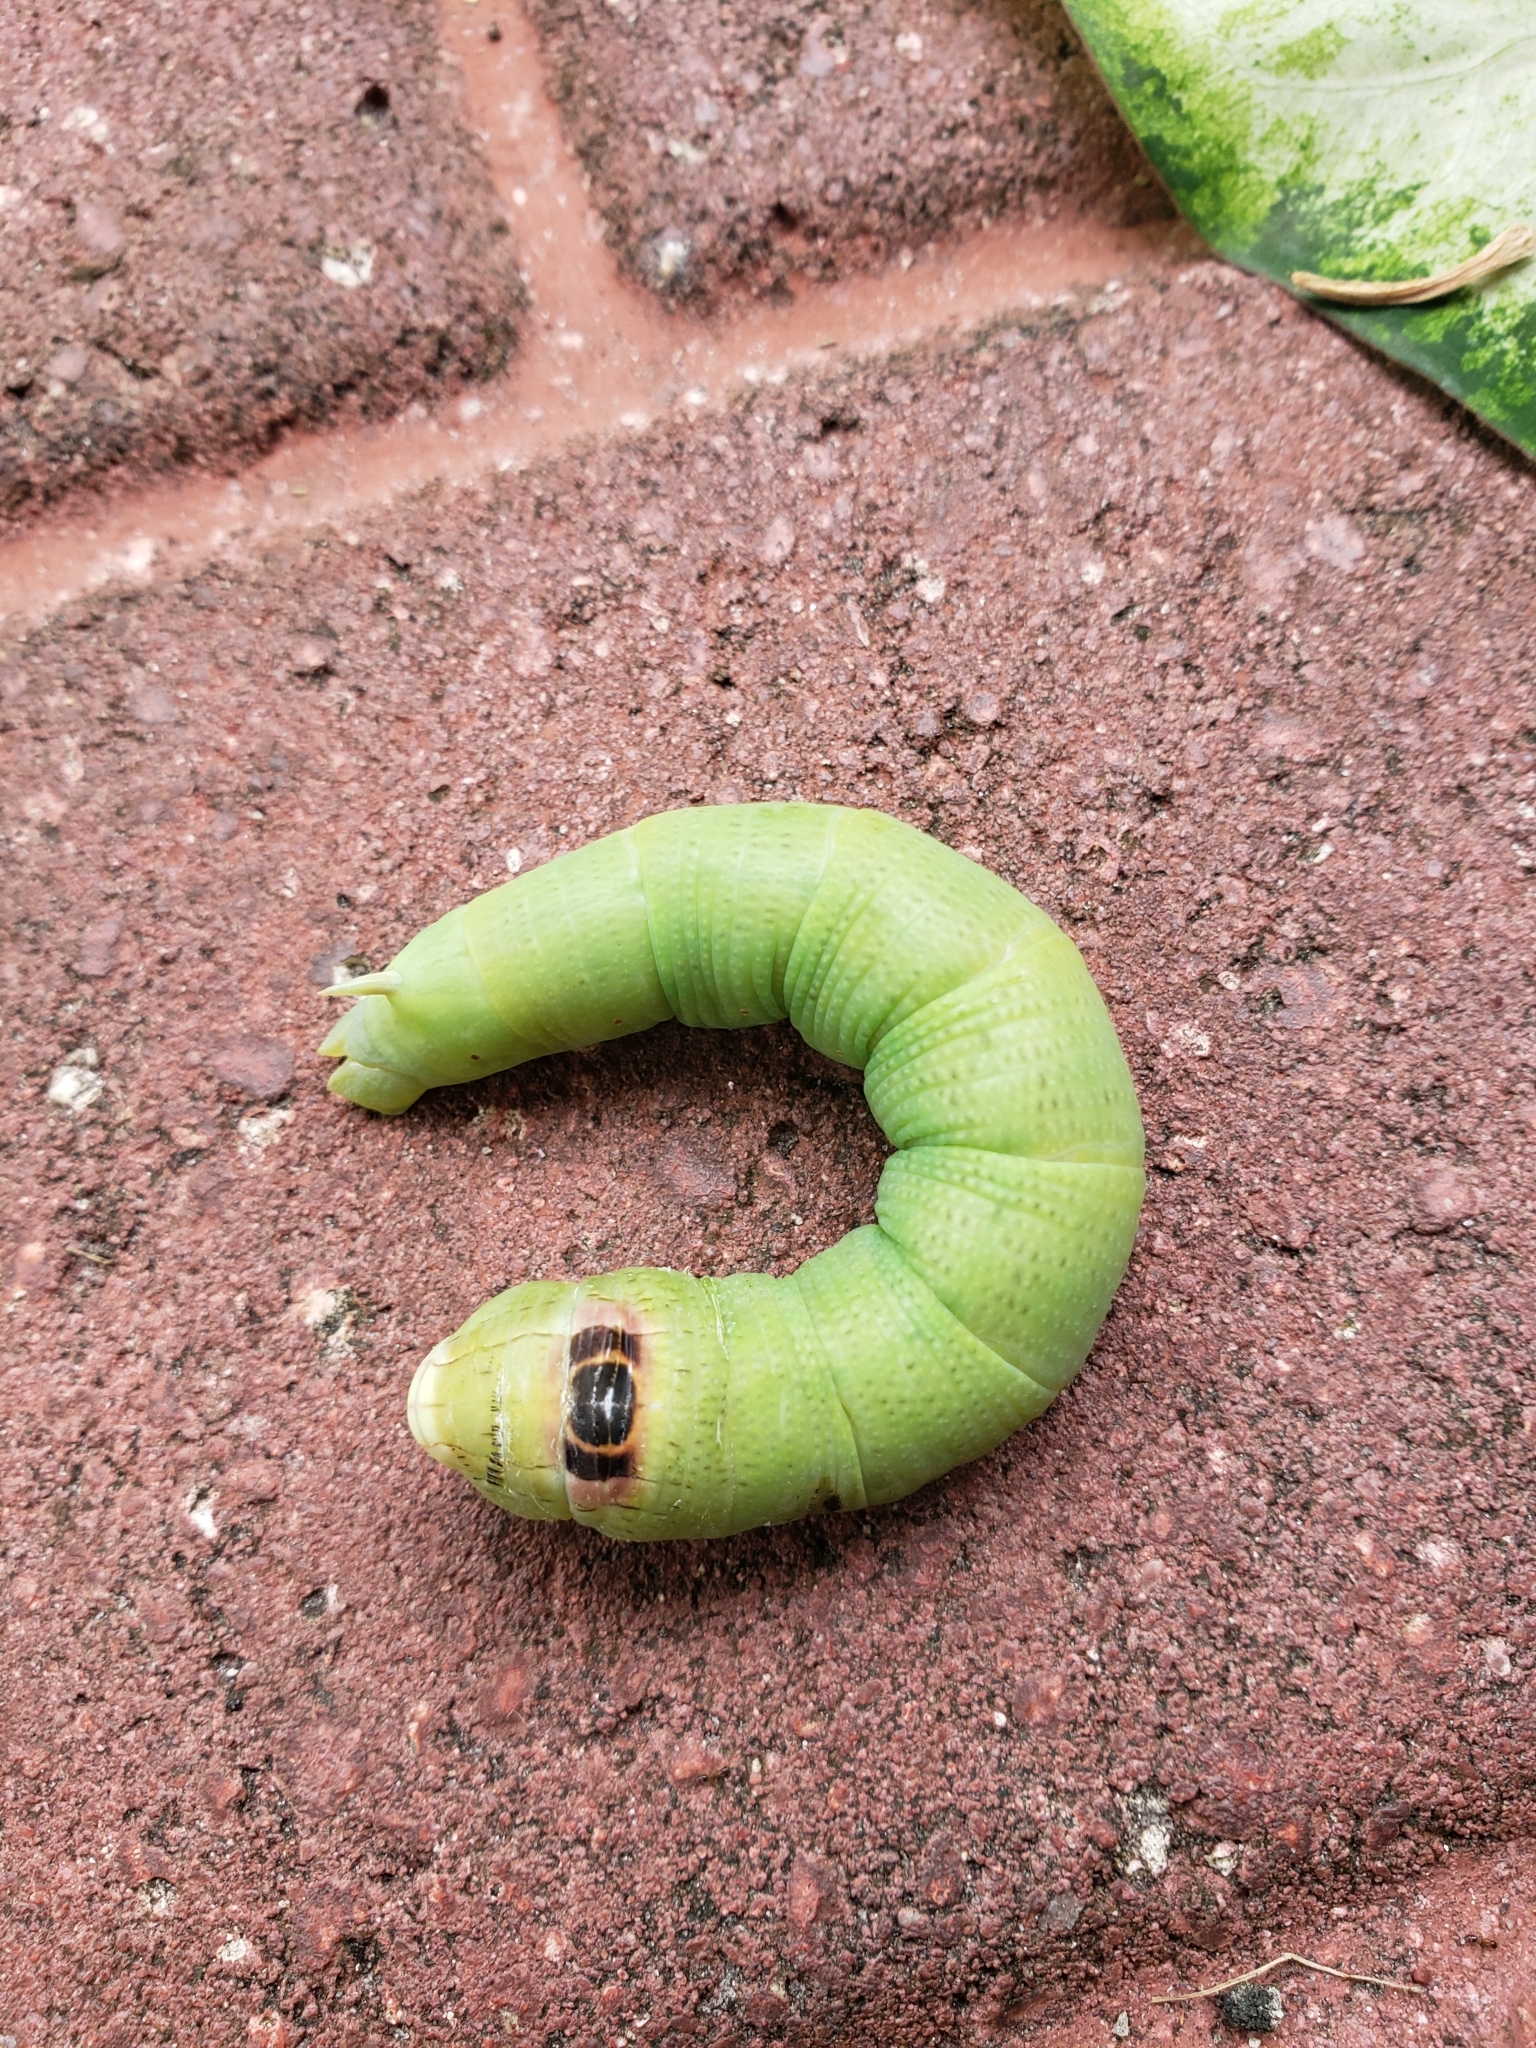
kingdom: Animalia
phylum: Arthropoda
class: Insecta
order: Lepidoptera
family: Sphingidae
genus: Erinnyis
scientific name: Erinnyis alope
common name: Alope sphinx
